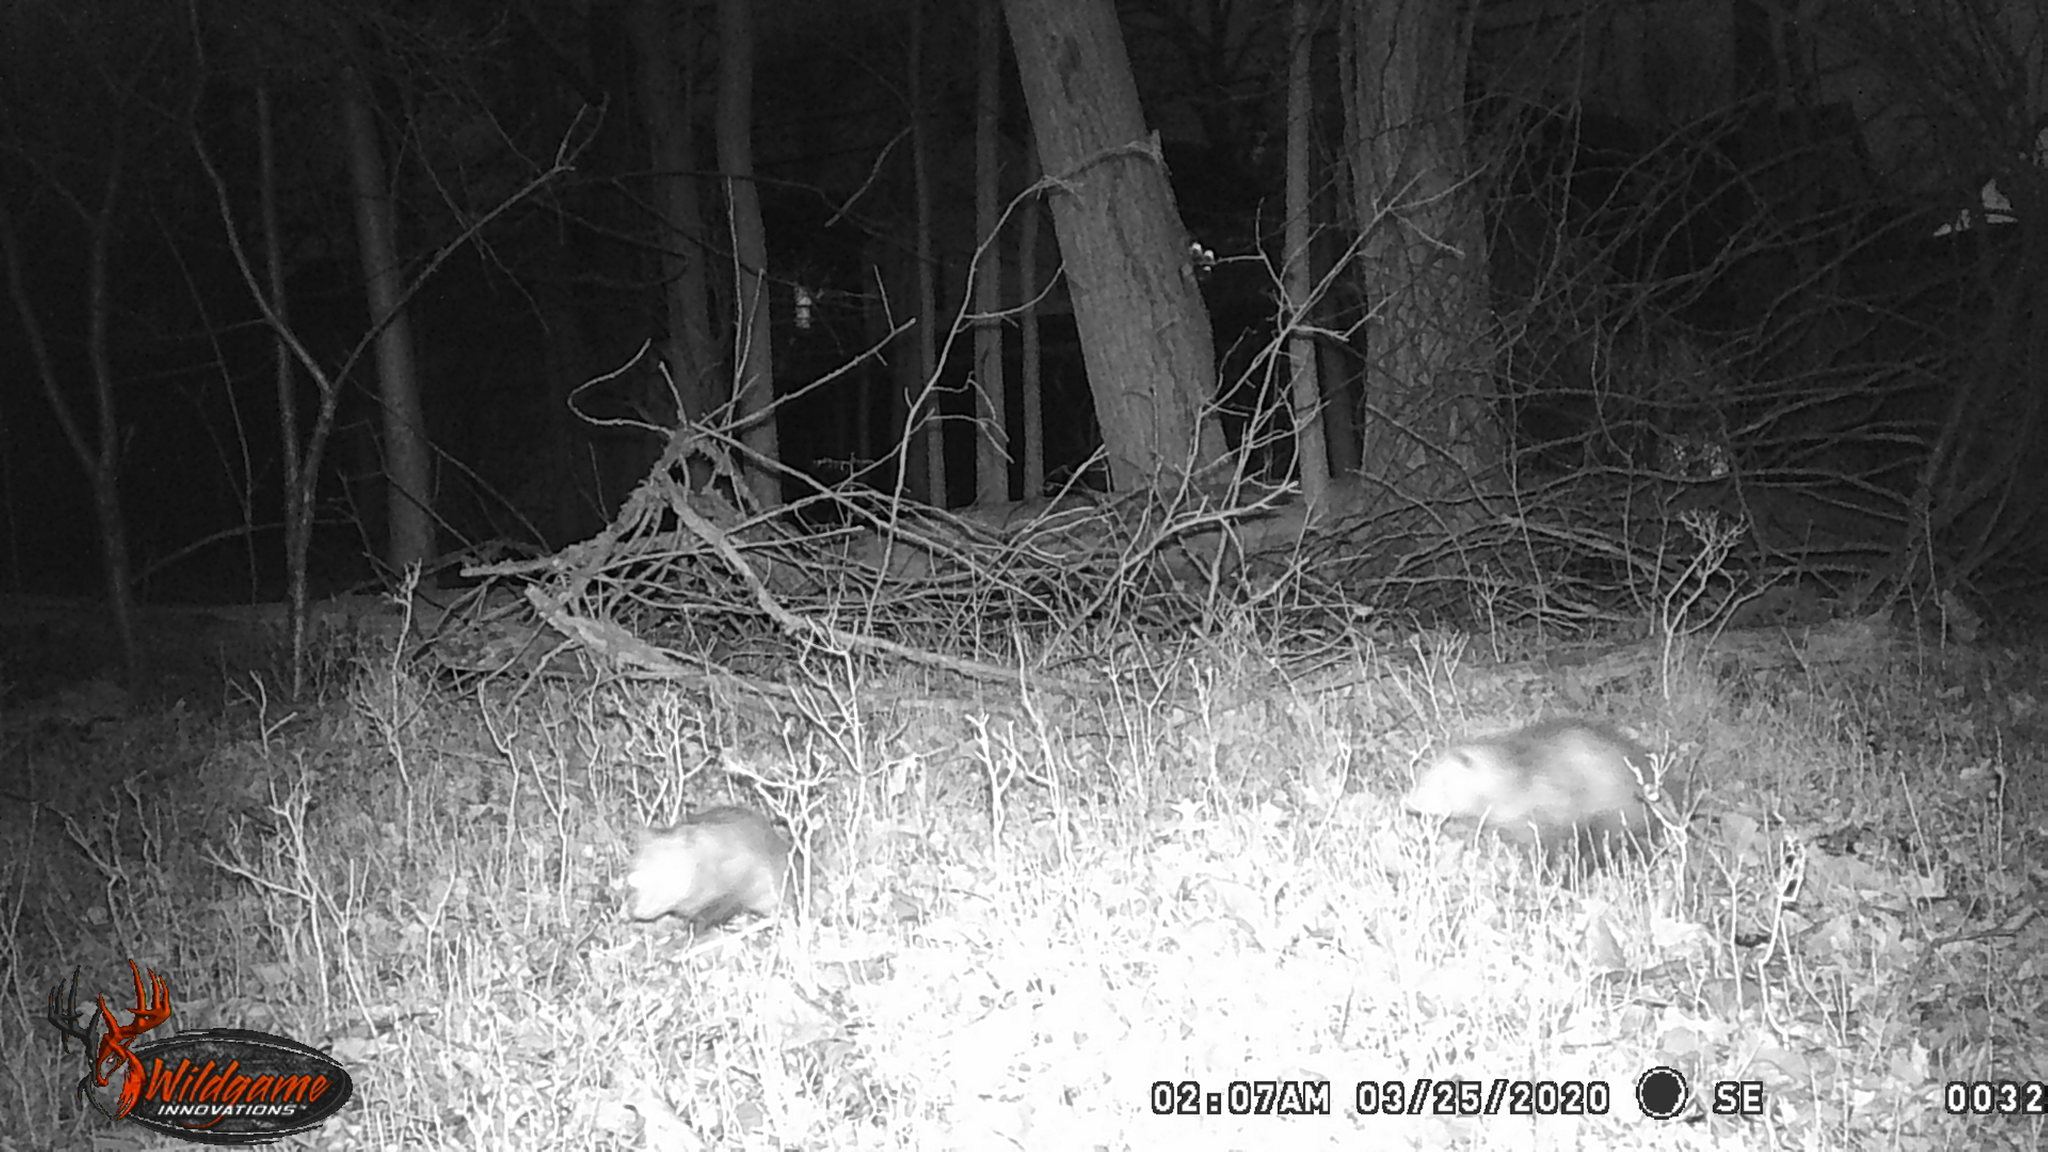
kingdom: Animalia
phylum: Chordata
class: Mammalia
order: Didelphimorphia
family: Didelphidae
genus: Didelphis
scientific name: Didelphis virginiana
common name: Virginia opossum
